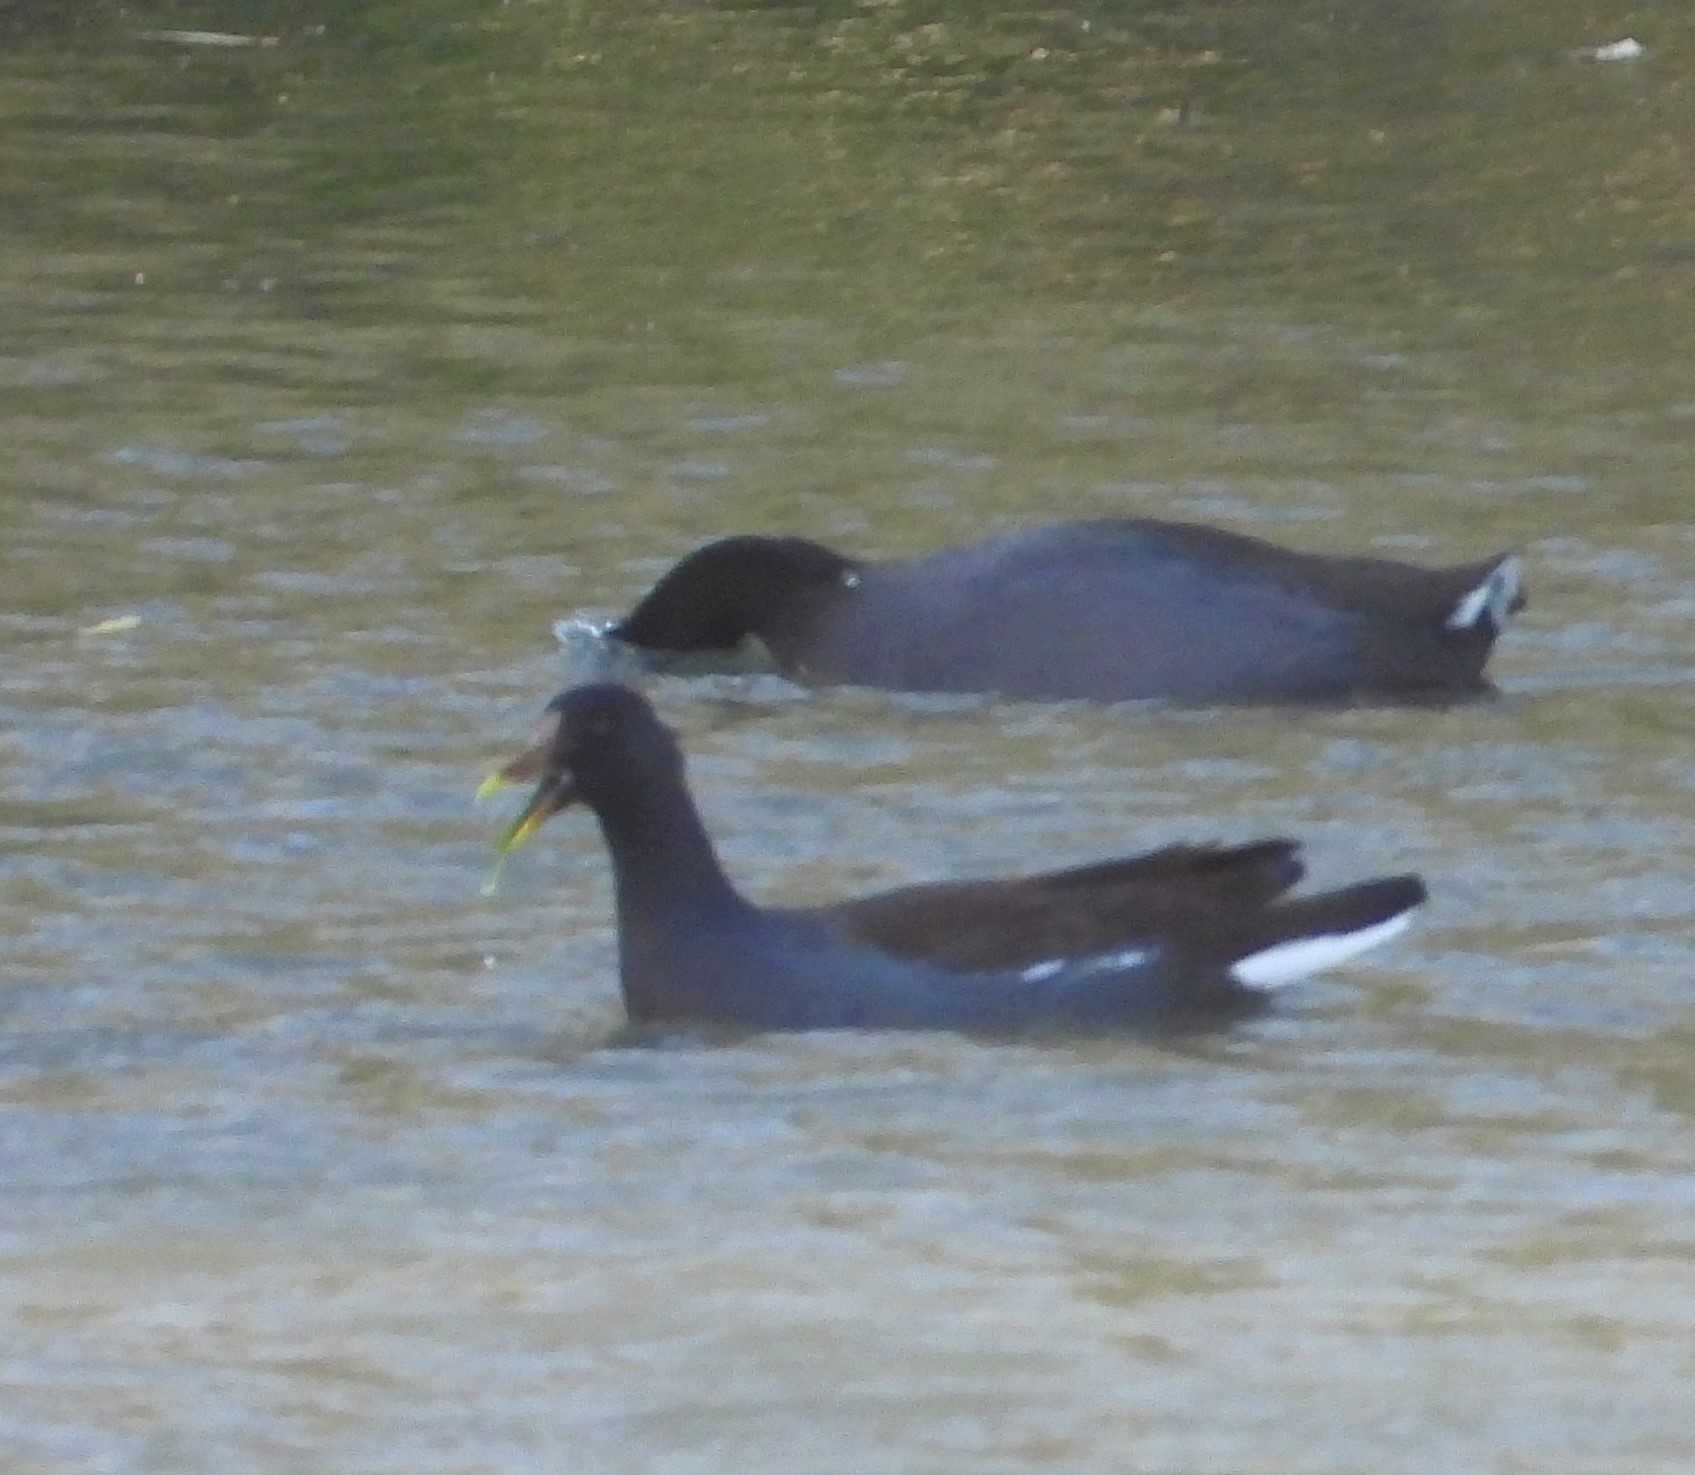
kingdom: Animalia
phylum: Chordata
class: Aves
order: Gruiformes
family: Rallidae
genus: Gallinula
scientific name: Gallinula chloropus
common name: Common moorhen
